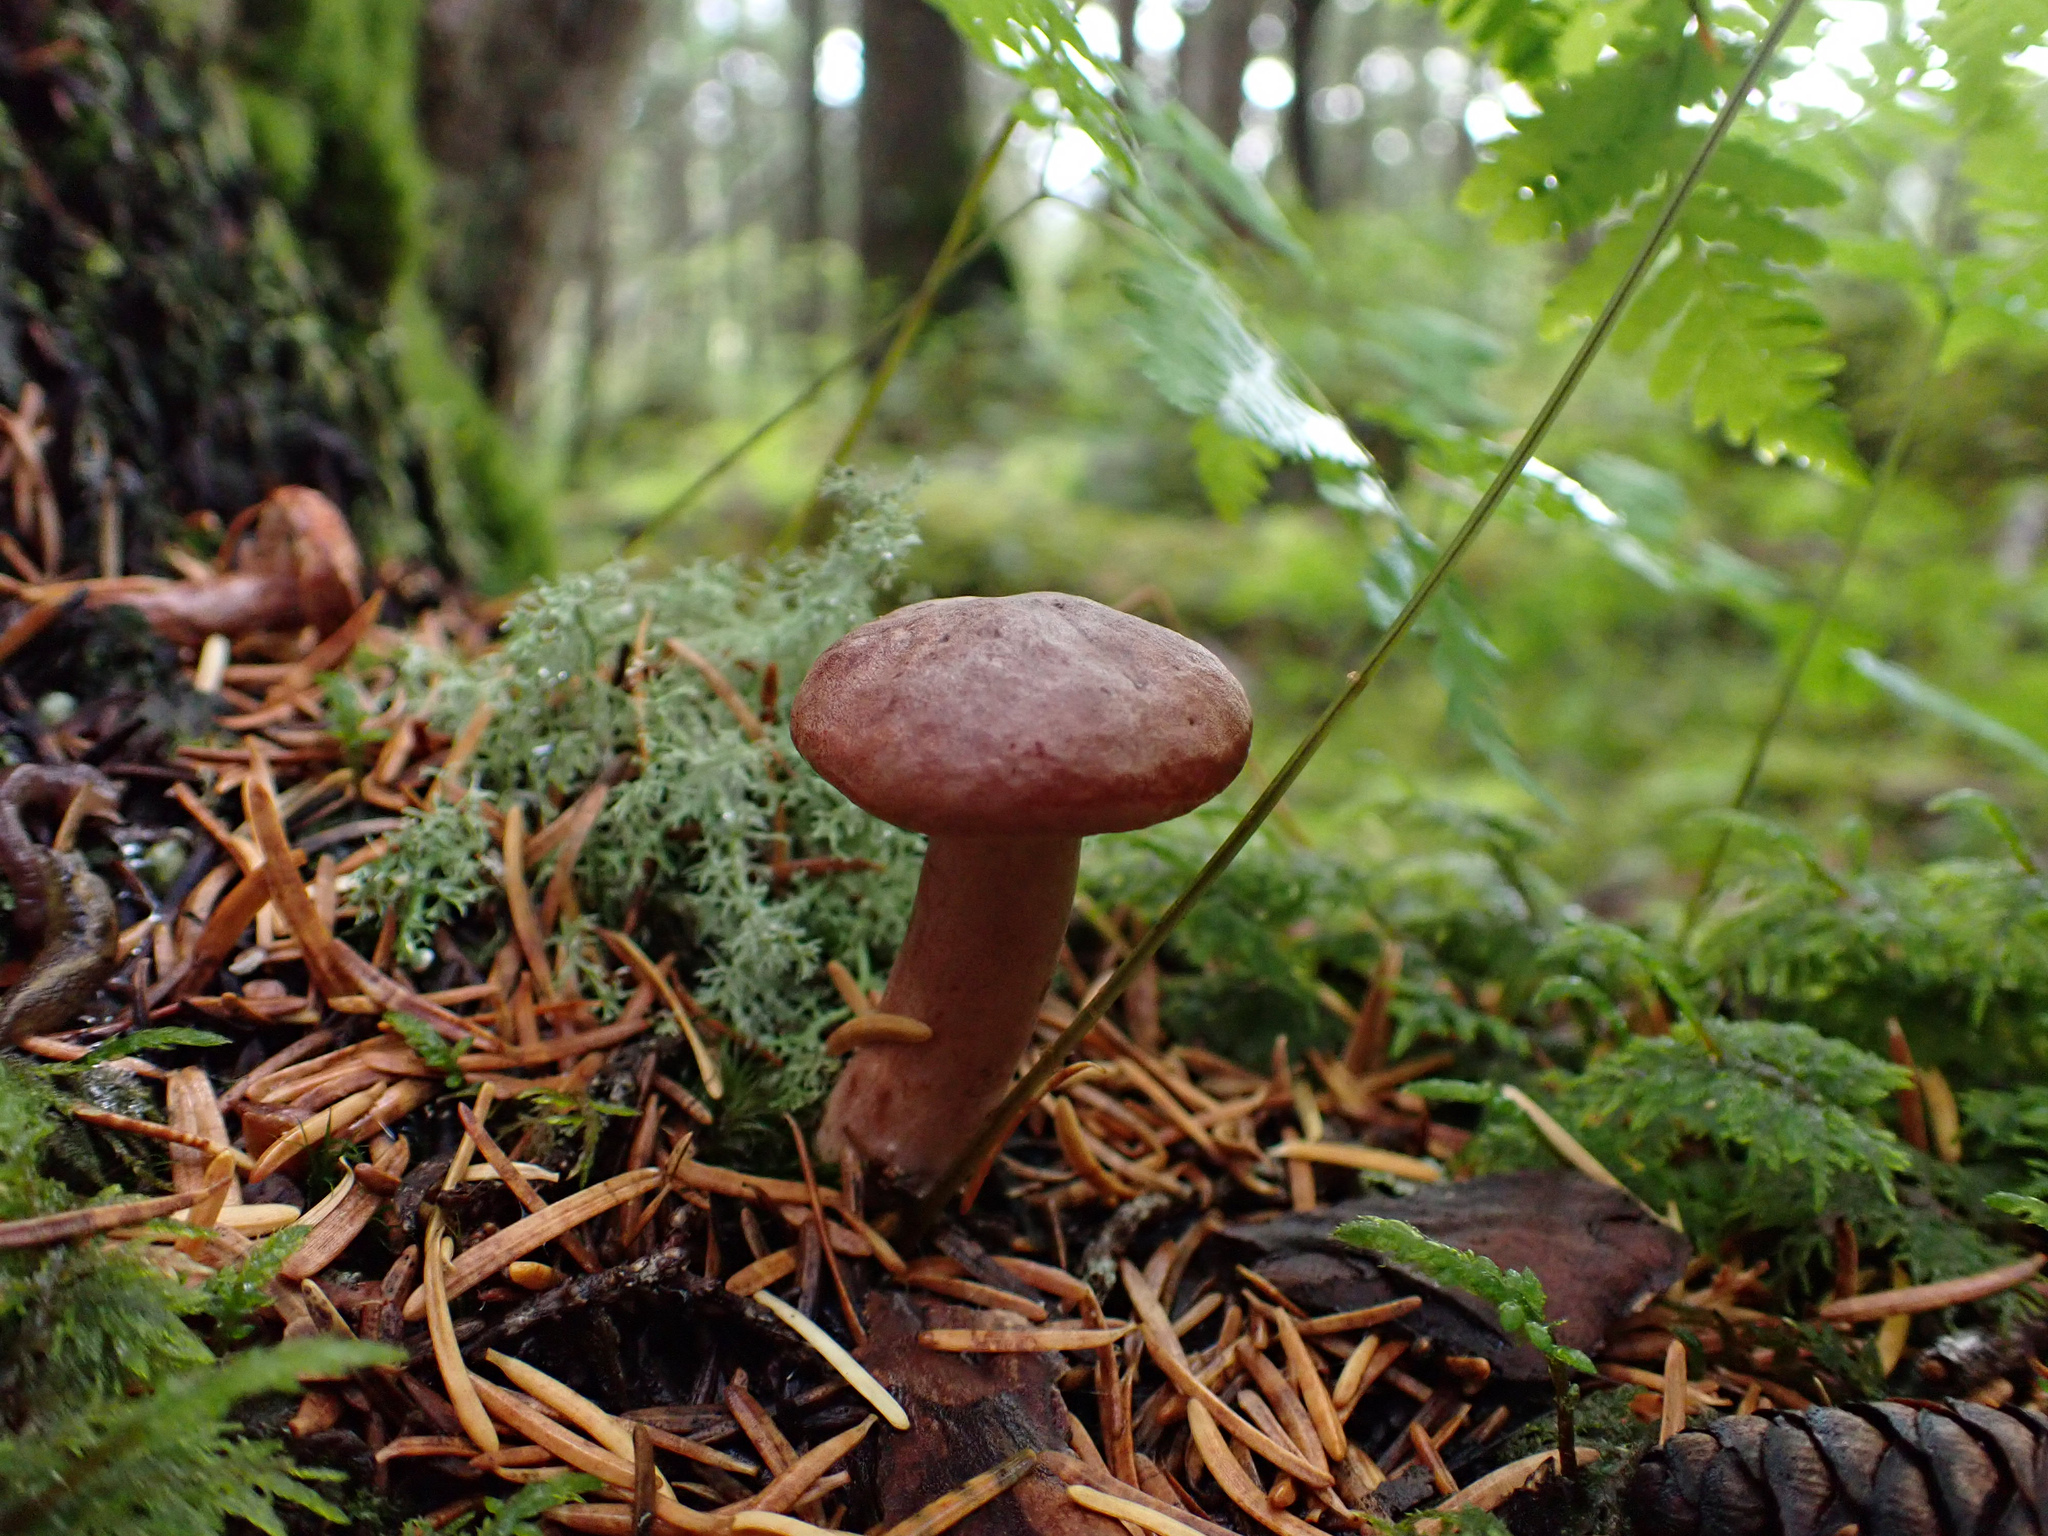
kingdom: Fungi
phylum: Basidiomycota
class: Agaricomycetes
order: Russulales
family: Russulaceae
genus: Lactarius
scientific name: Lactarius rufus
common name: Rufous milk-cap
